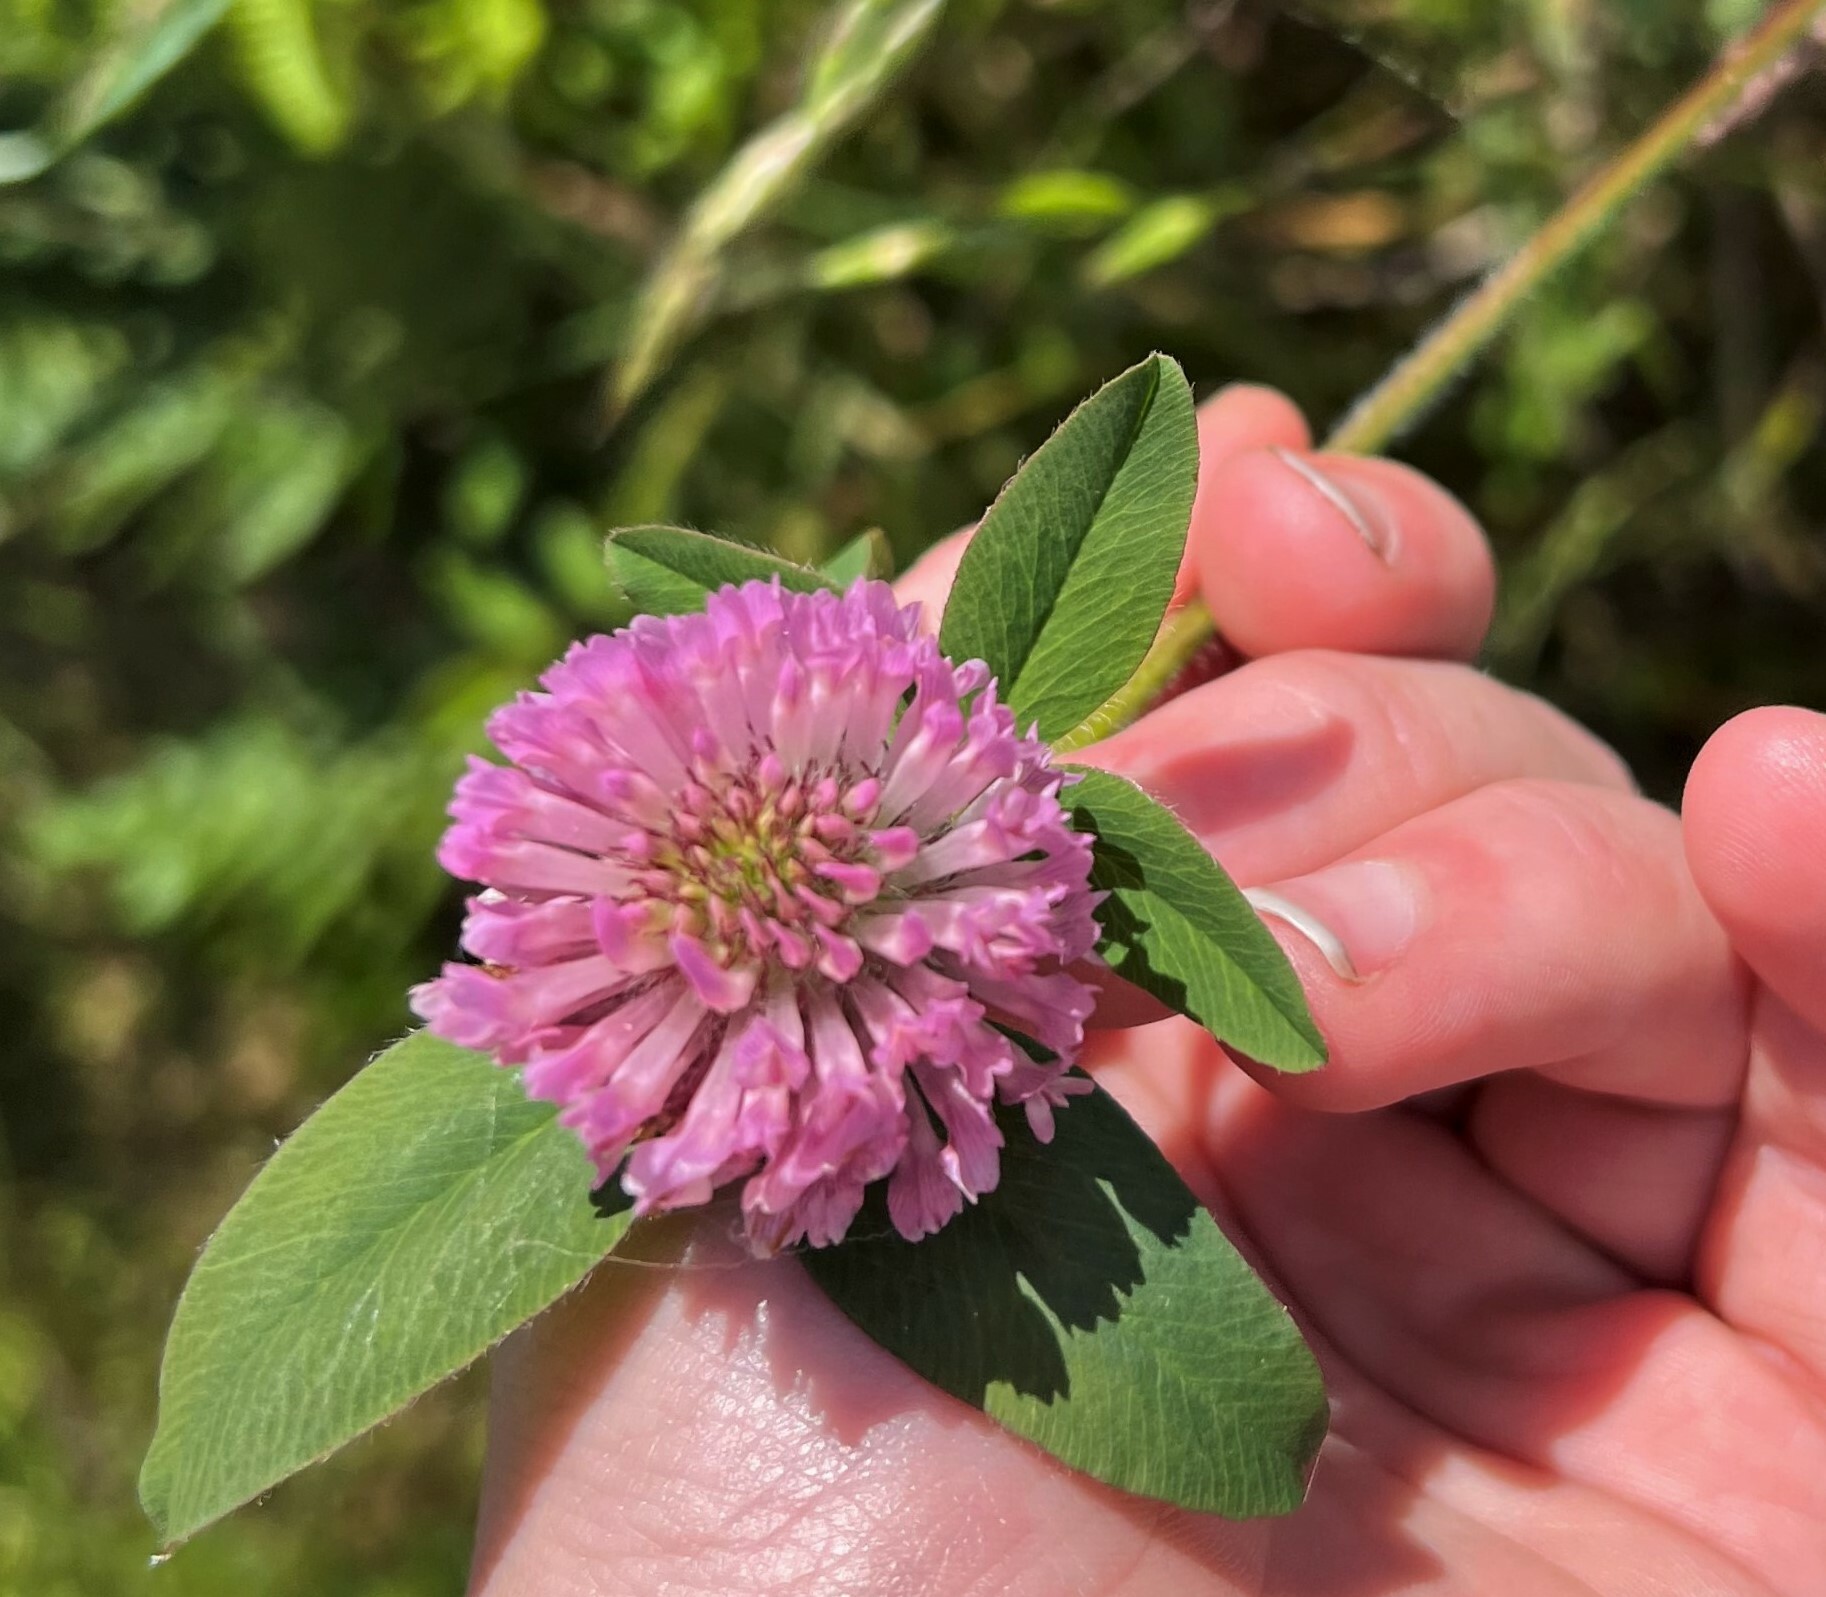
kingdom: Plantae
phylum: Tracheophyta
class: Magnoliopsida
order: Fabales
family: Fabaceae
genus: Trifolium
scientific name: Trifolium pratense
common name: Red clover
